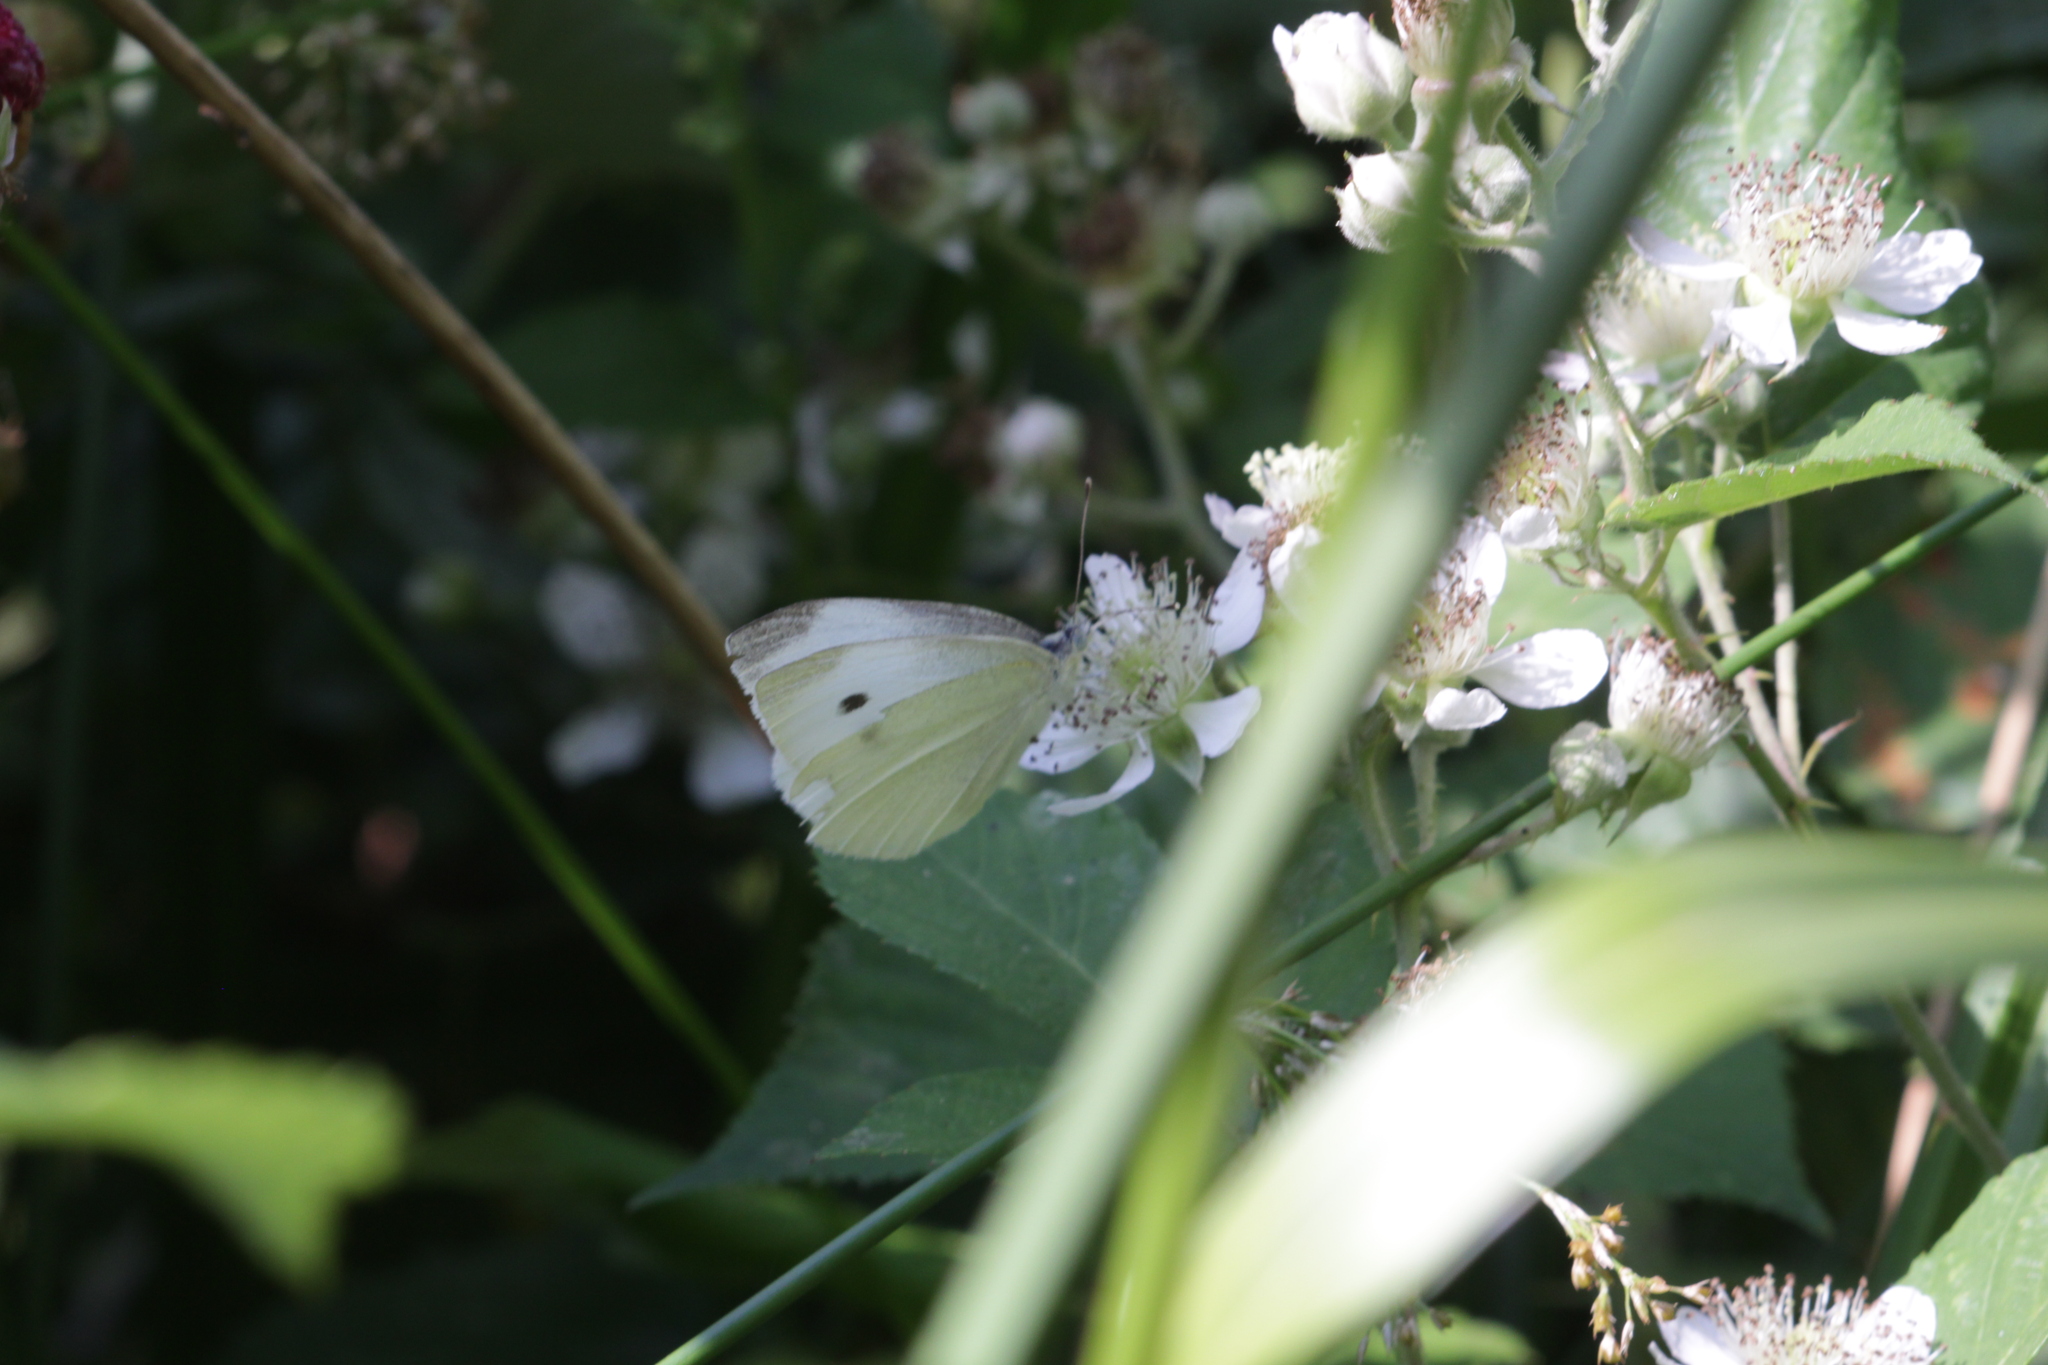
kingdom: Animalia
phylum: Arthropoda
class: Insecta
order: Lepidoptera
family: Pieridae
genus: Pieris
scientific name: Pieris rapae
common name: Small white
